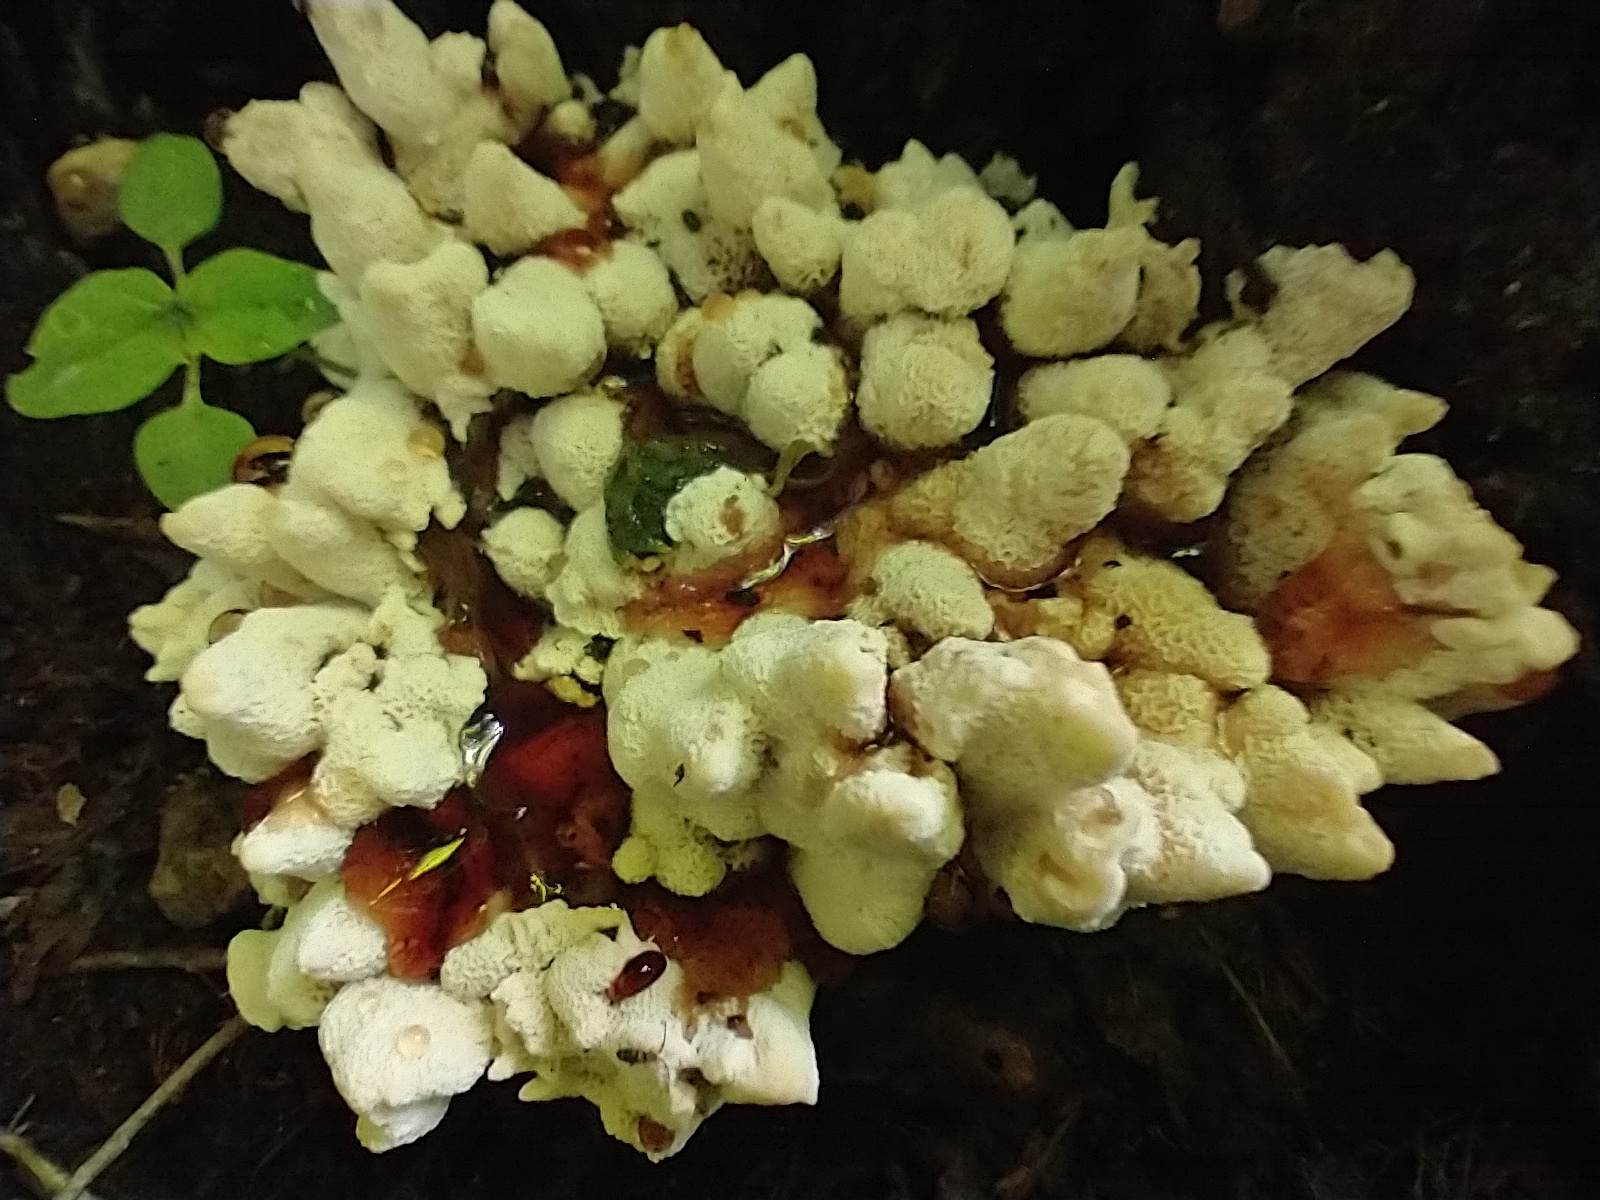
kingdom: Fungi
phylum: Basidiomycota
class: Agaricomycetes
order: Polyporales
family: Podoscyphaceae
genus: Abortiporus
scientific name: Abortiporus biennis
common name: Blushing rosette
